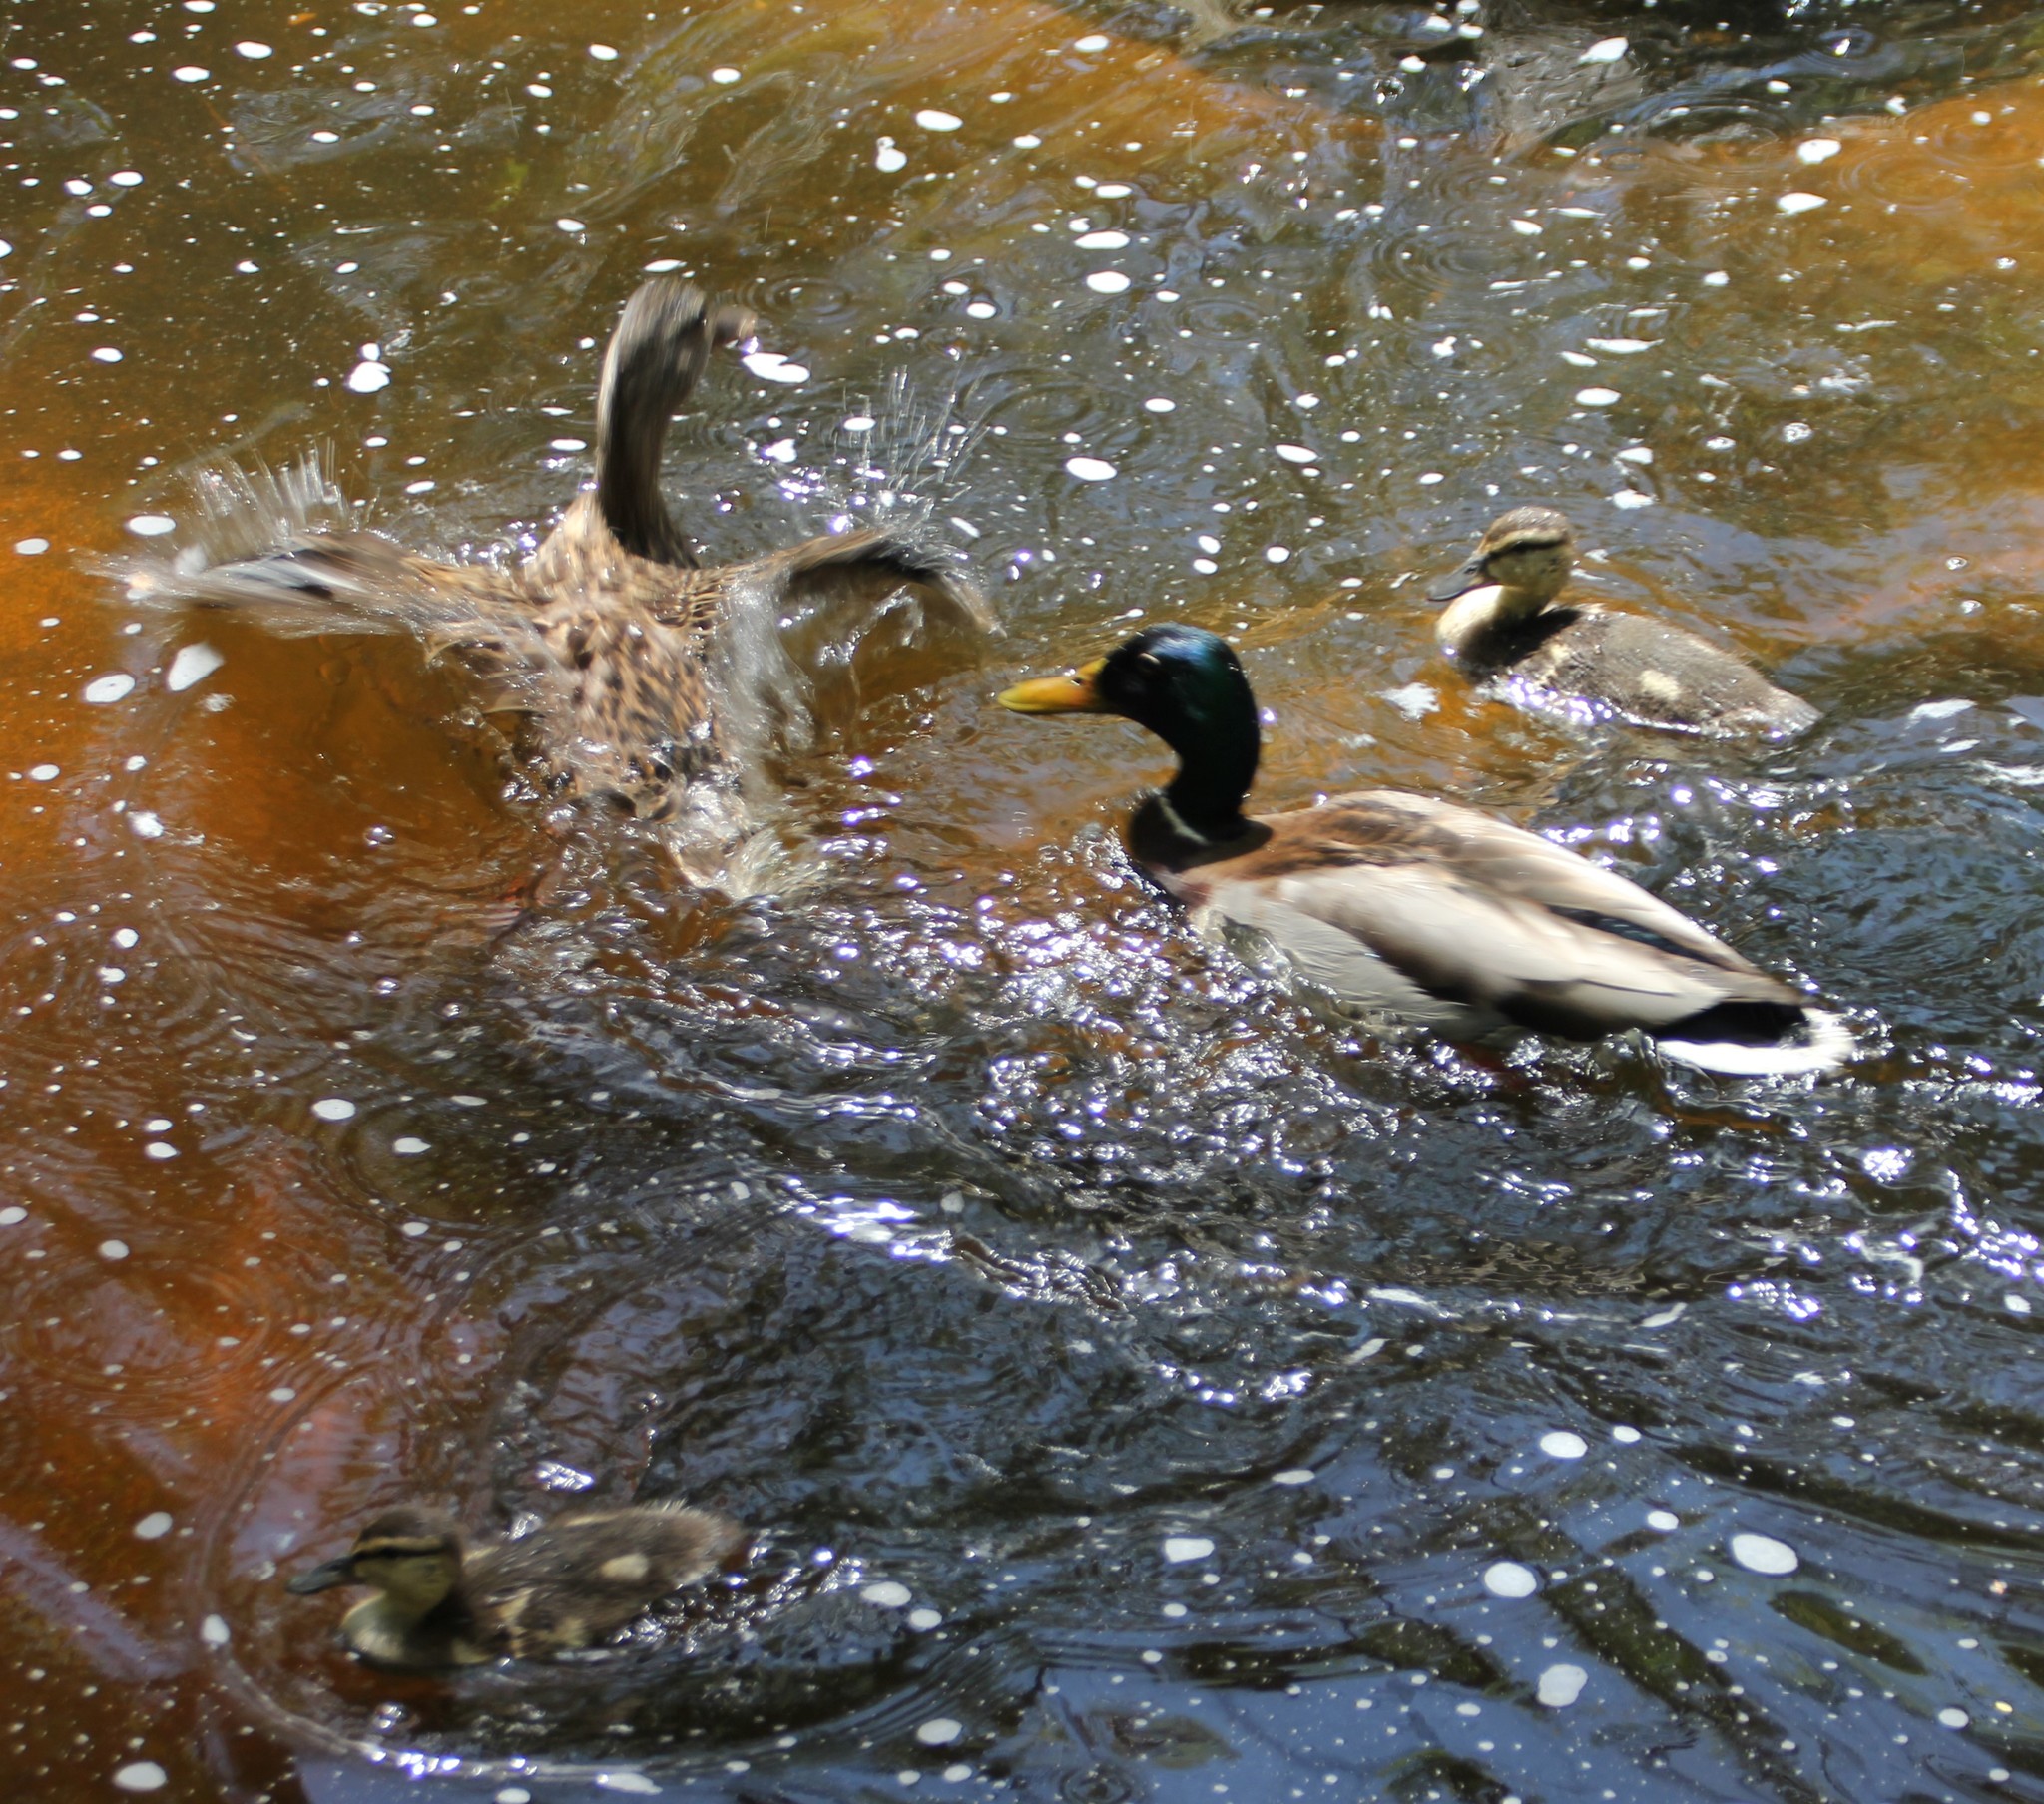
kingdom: Animalia
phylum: Chordata
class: Aves
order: Anseriformes
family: Anatidae
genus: Anas
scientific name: Anas platyrhynchos
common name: Mallard
